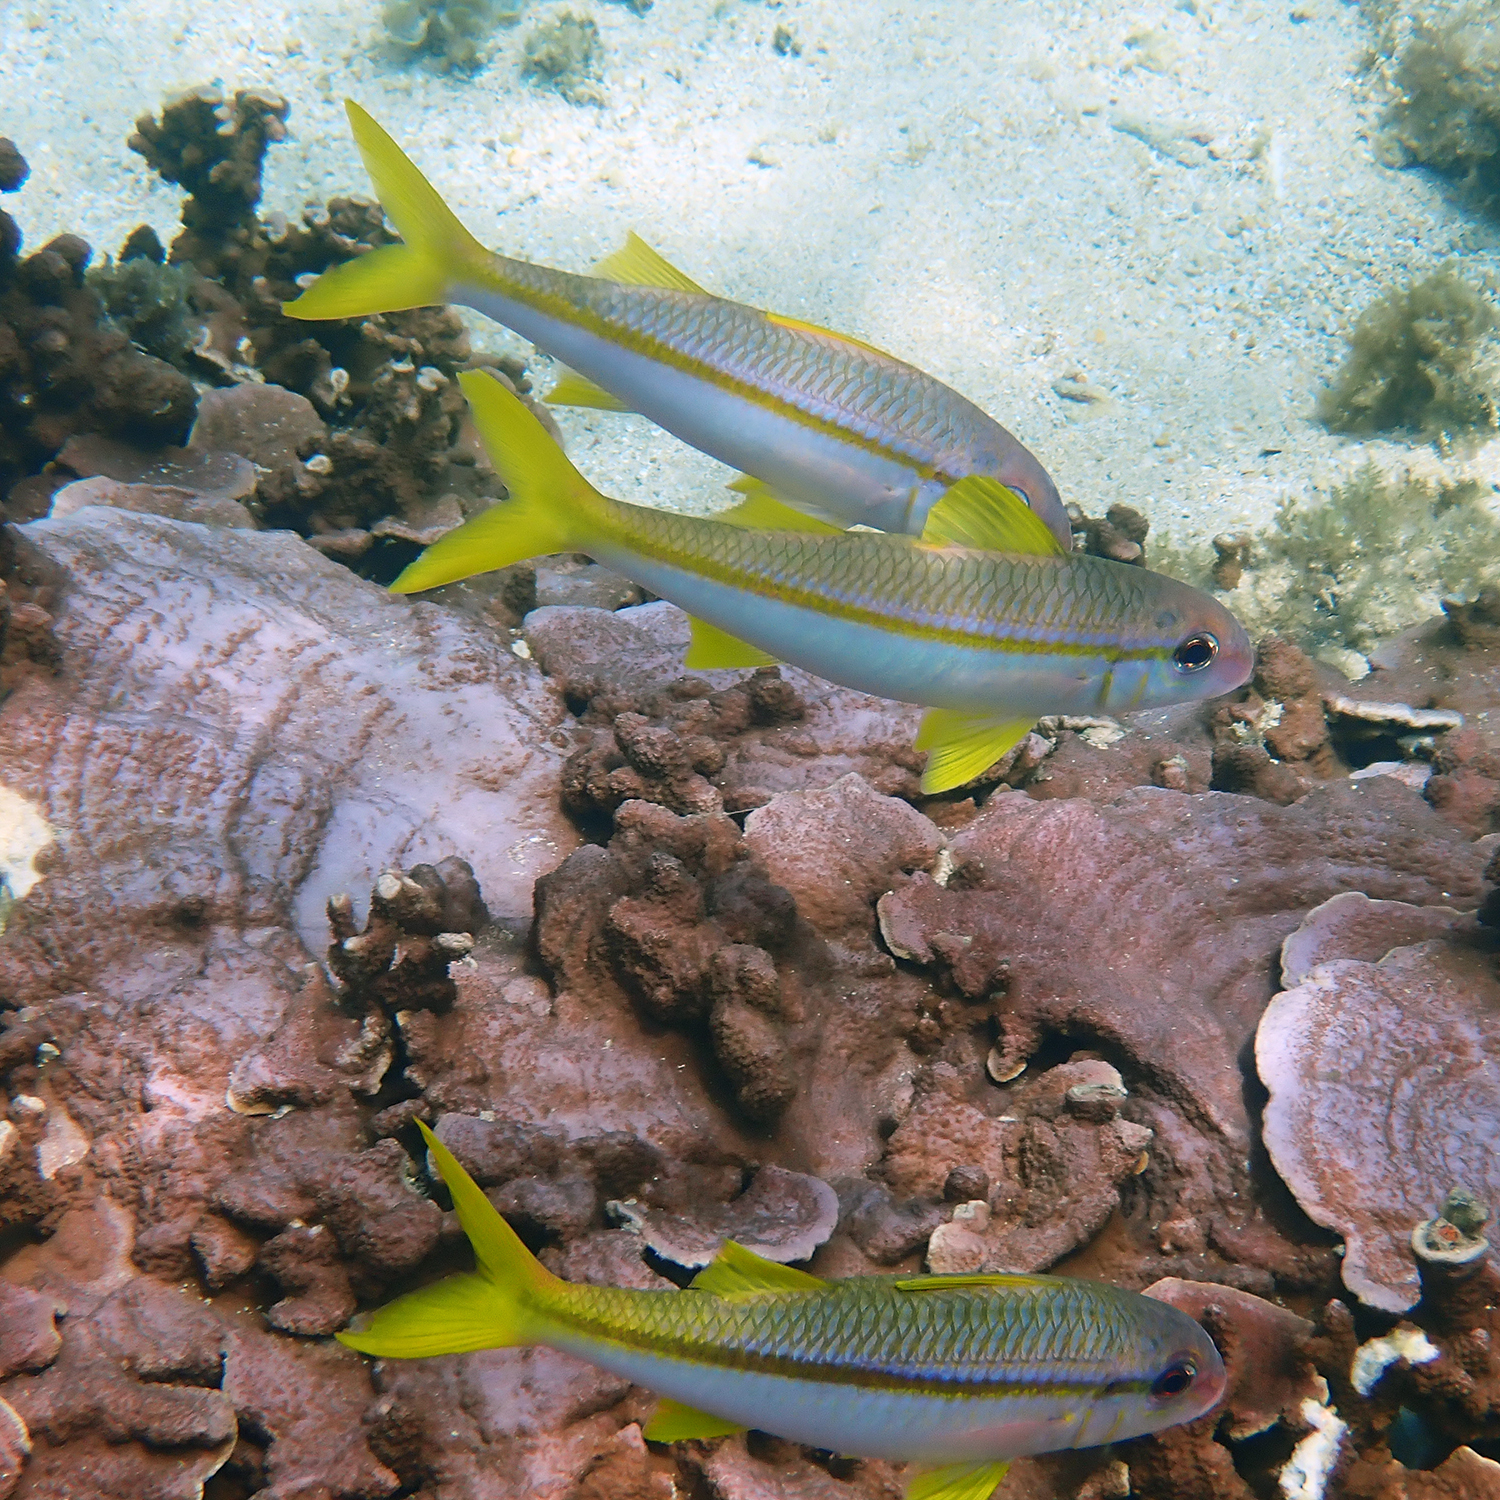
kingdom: Animalia
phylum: Chordata
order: Perciformes
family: Mullidae
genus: Mulloidichthys
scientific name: Mulloidichthys vanicolensis
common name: Yellowfin goatfish
